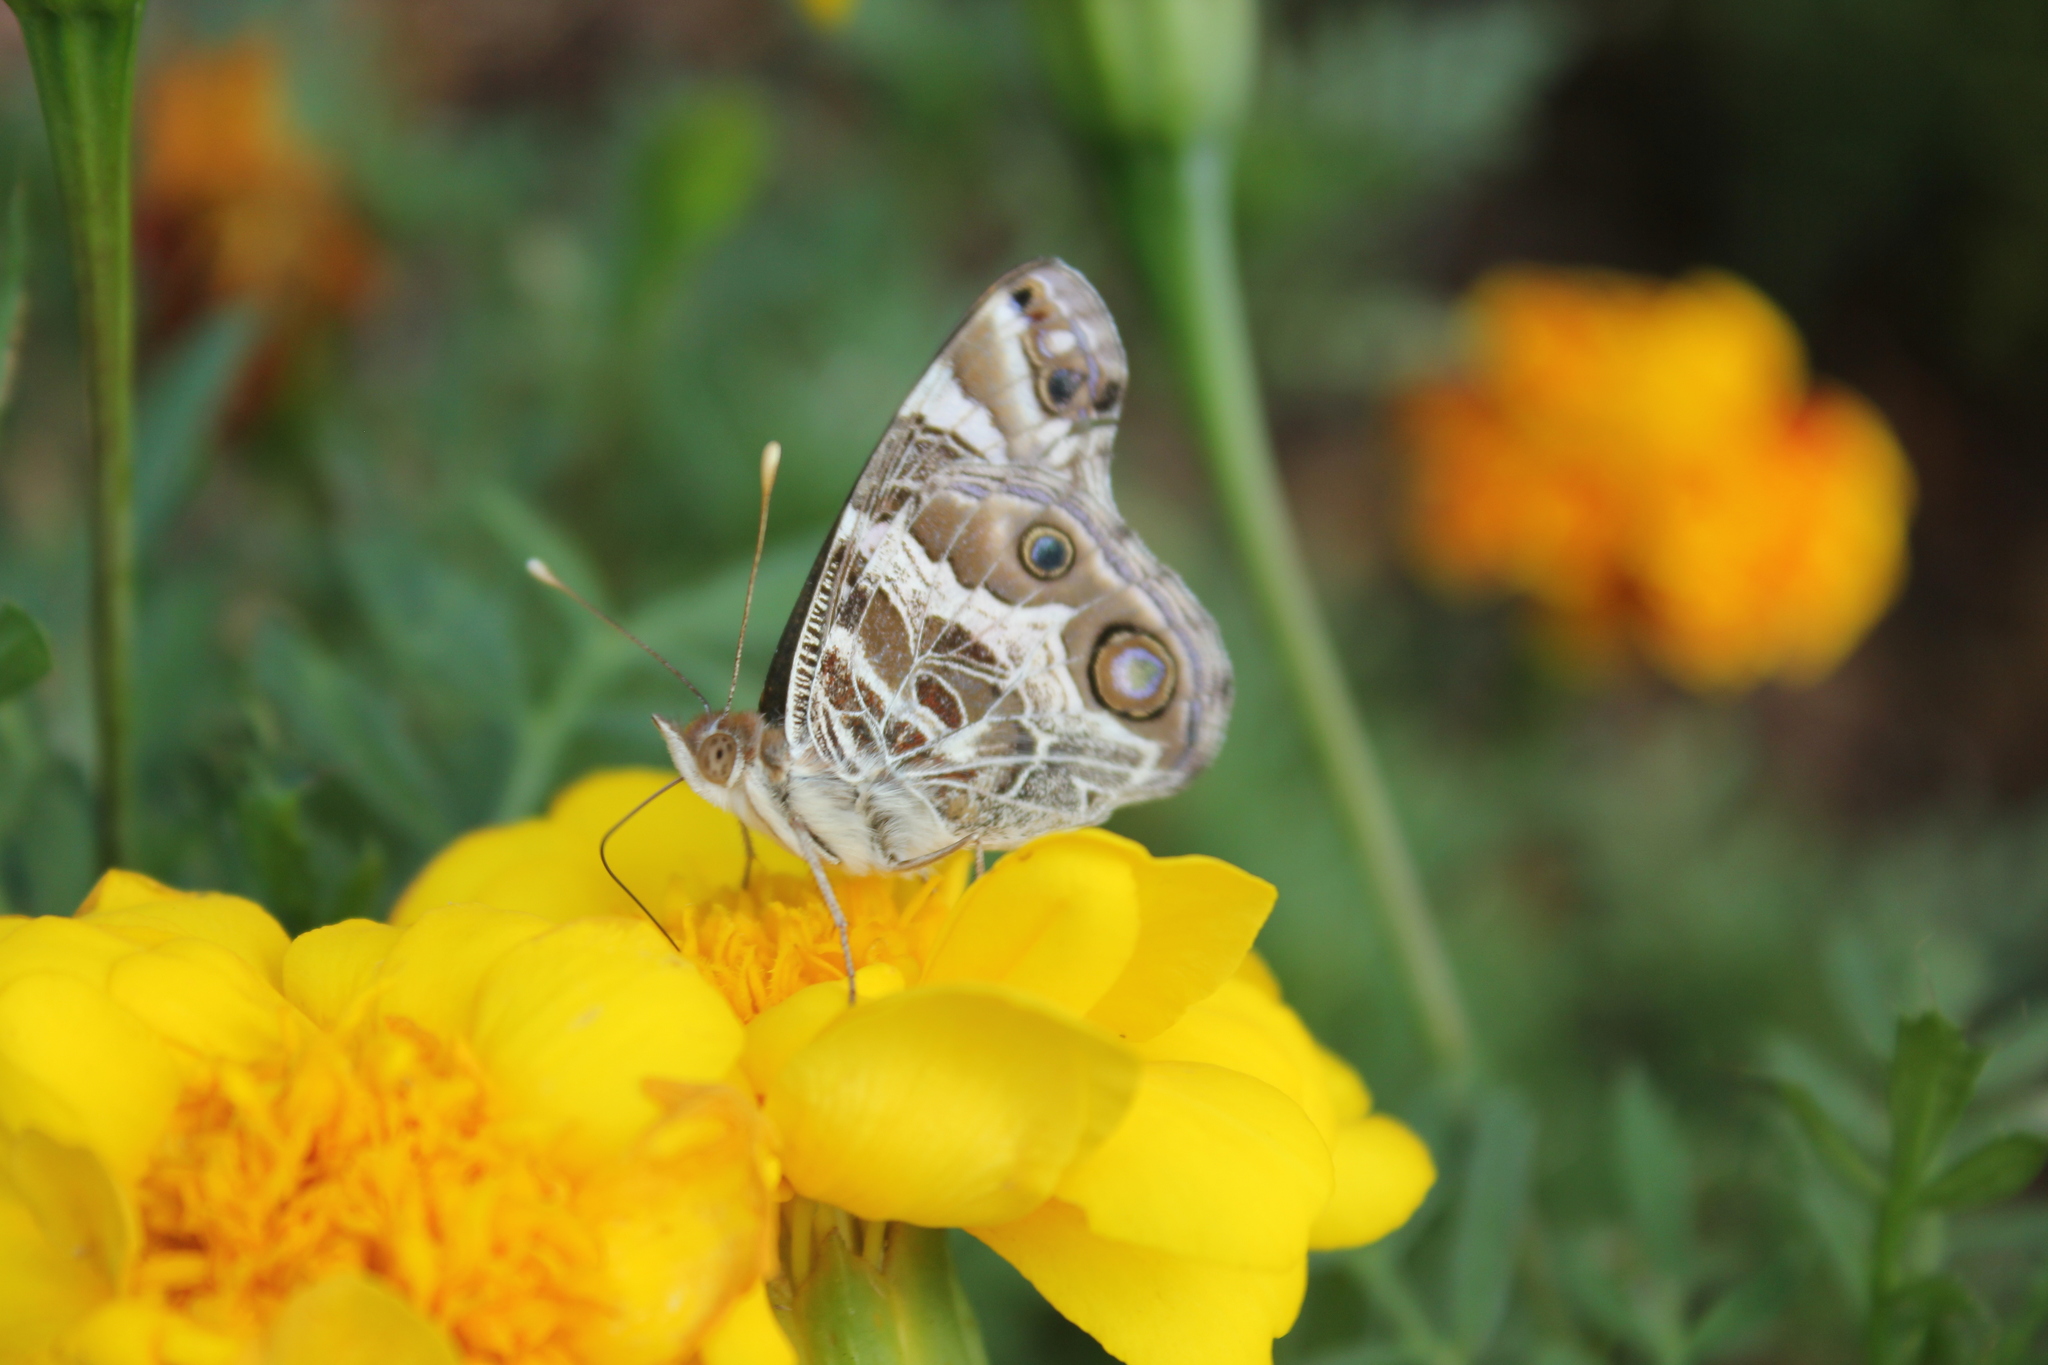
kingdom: Animalia
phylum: Arthropoda
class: Insecta
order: Lepidoptera
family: Nymphalidae
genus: Vanessa
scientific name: Vanessa virginiensis
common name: American lady
